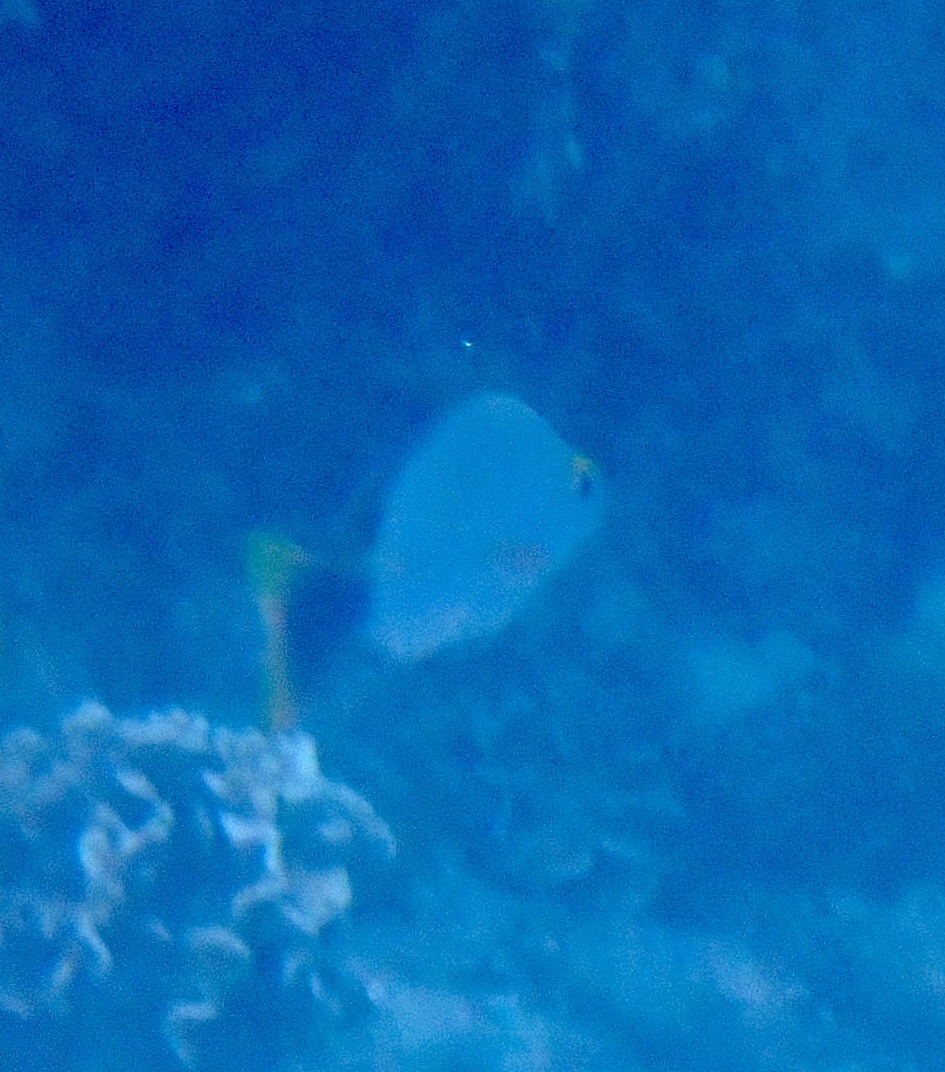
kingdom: Animalia
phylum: Chordata
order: Perciformes
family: Lutjanidae
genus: Lutjanus
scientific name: Lutjanus gibbus
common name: Humpback snapper
